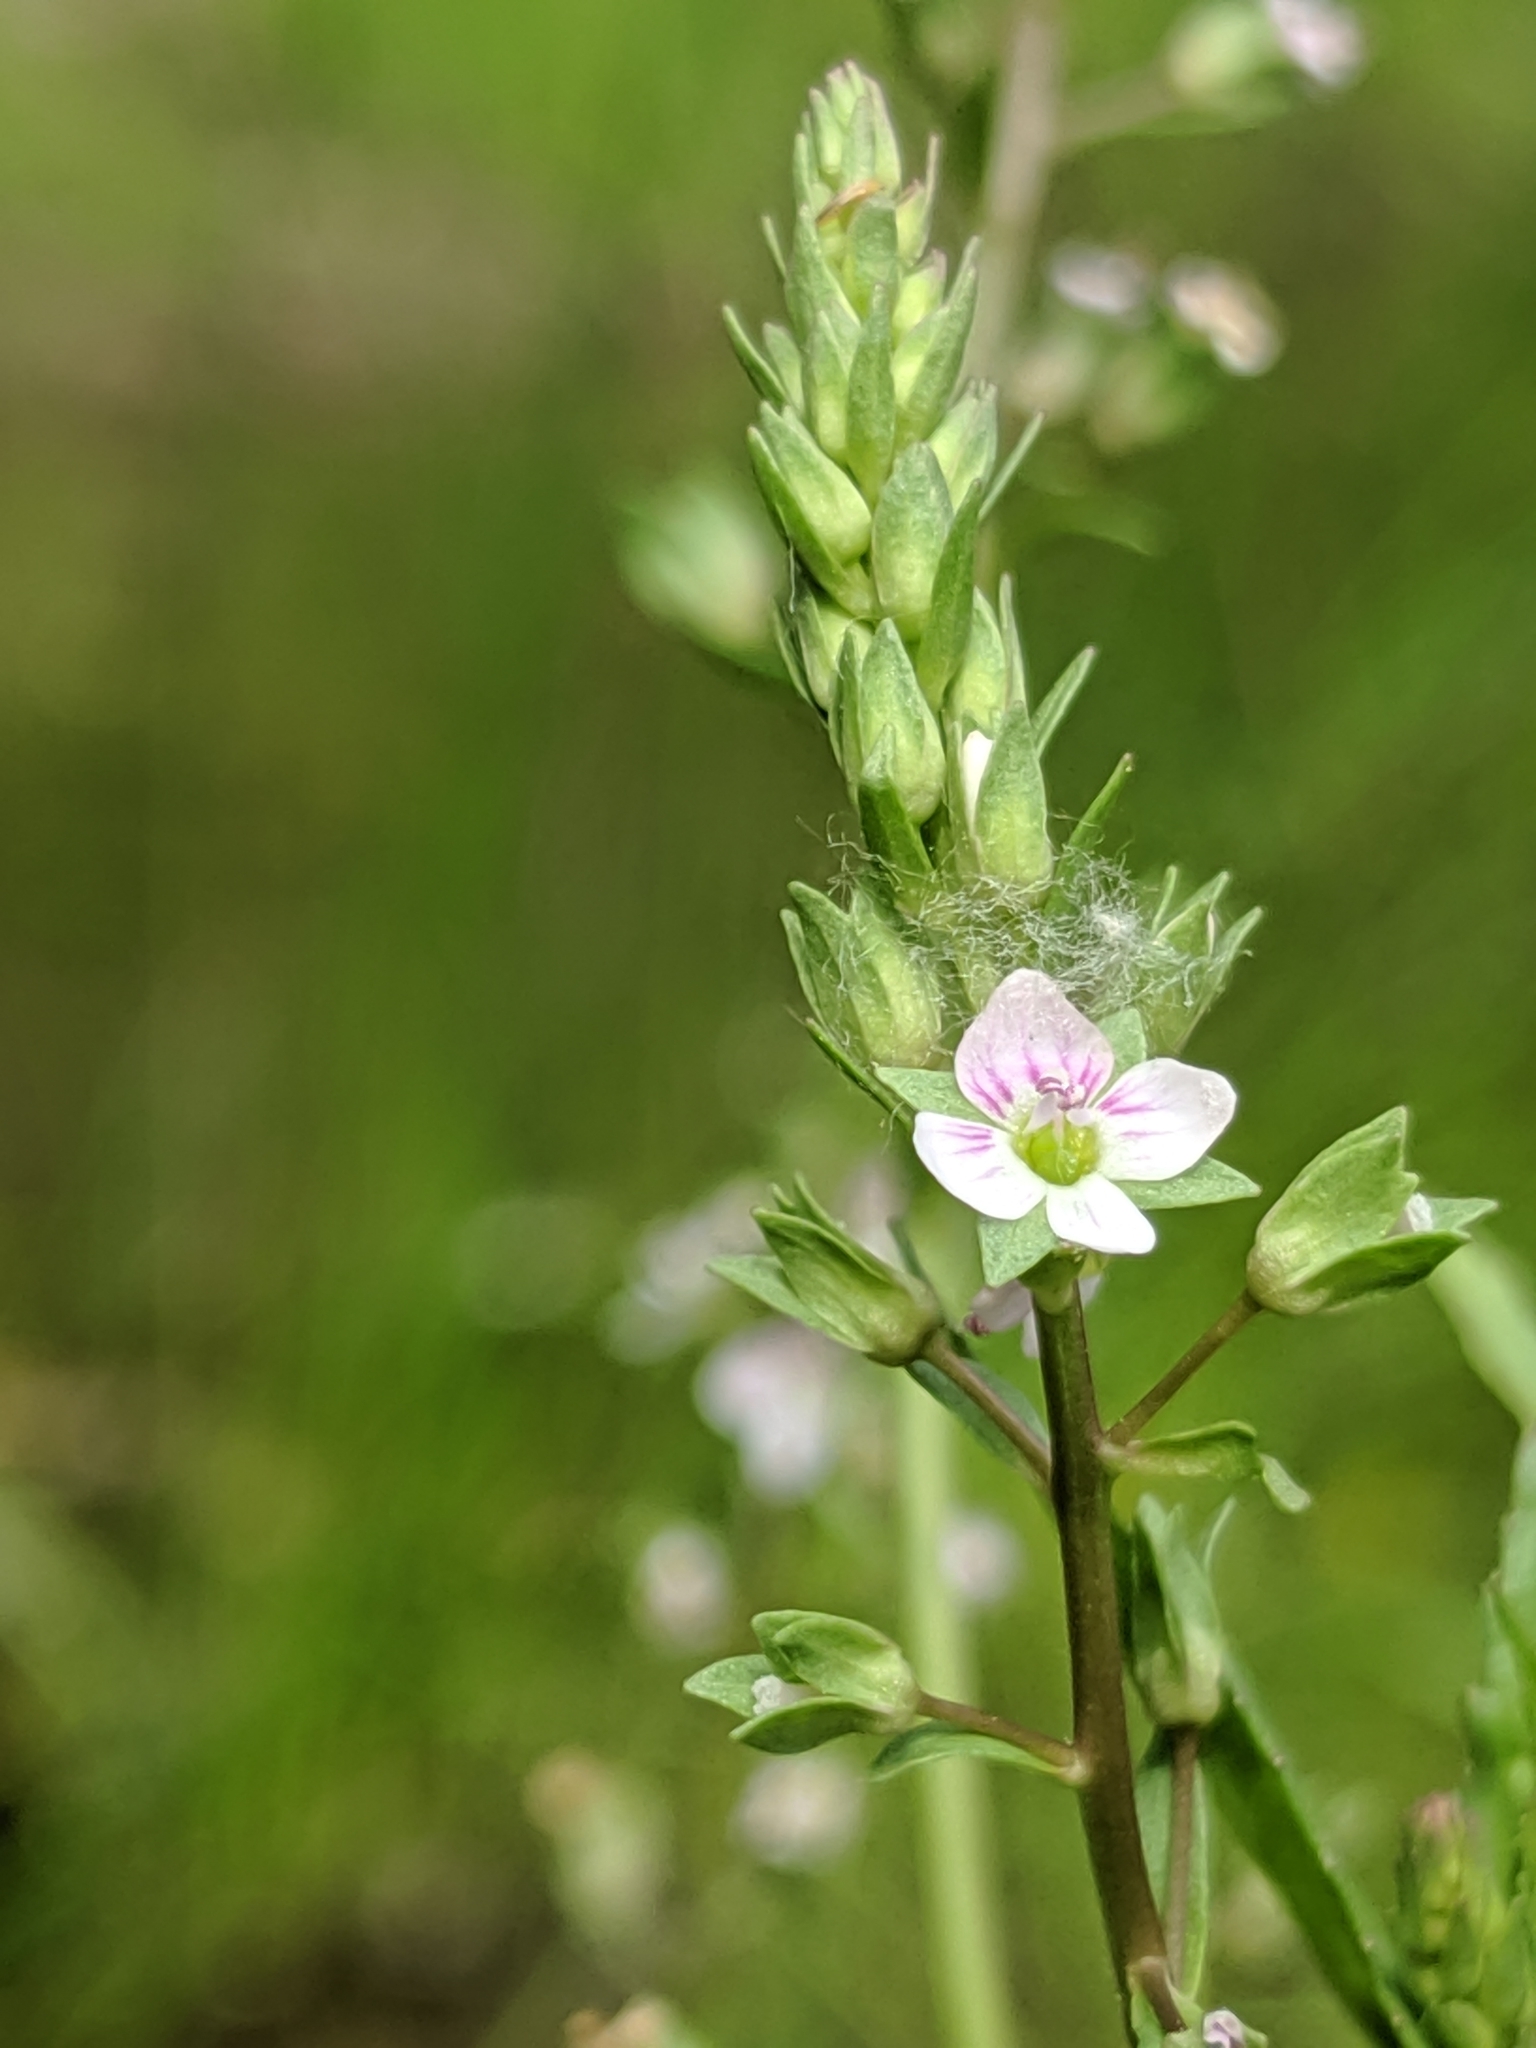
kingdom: Plantae
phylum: Tracheophyta
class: Magnoliopsida
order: Lamiales
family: Plantaginaceae
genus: Veronica
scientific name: Veronica anagallis-aquatica
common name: Water speedwell
